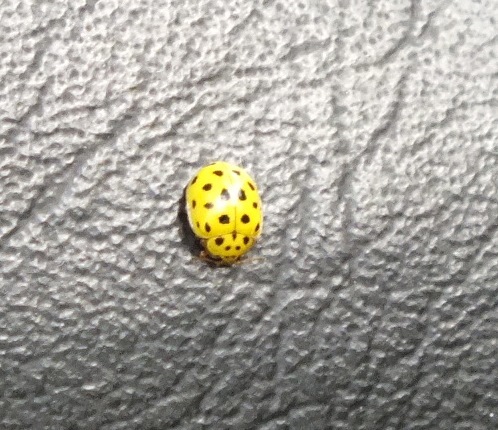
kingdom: Animalia
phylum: Arthropoda
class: Insecta
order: Coleoptera
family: Coccinellidae
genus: Psyllobora
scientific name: Psyllobora vigintiduopunctata
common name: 22-spot ladybird
